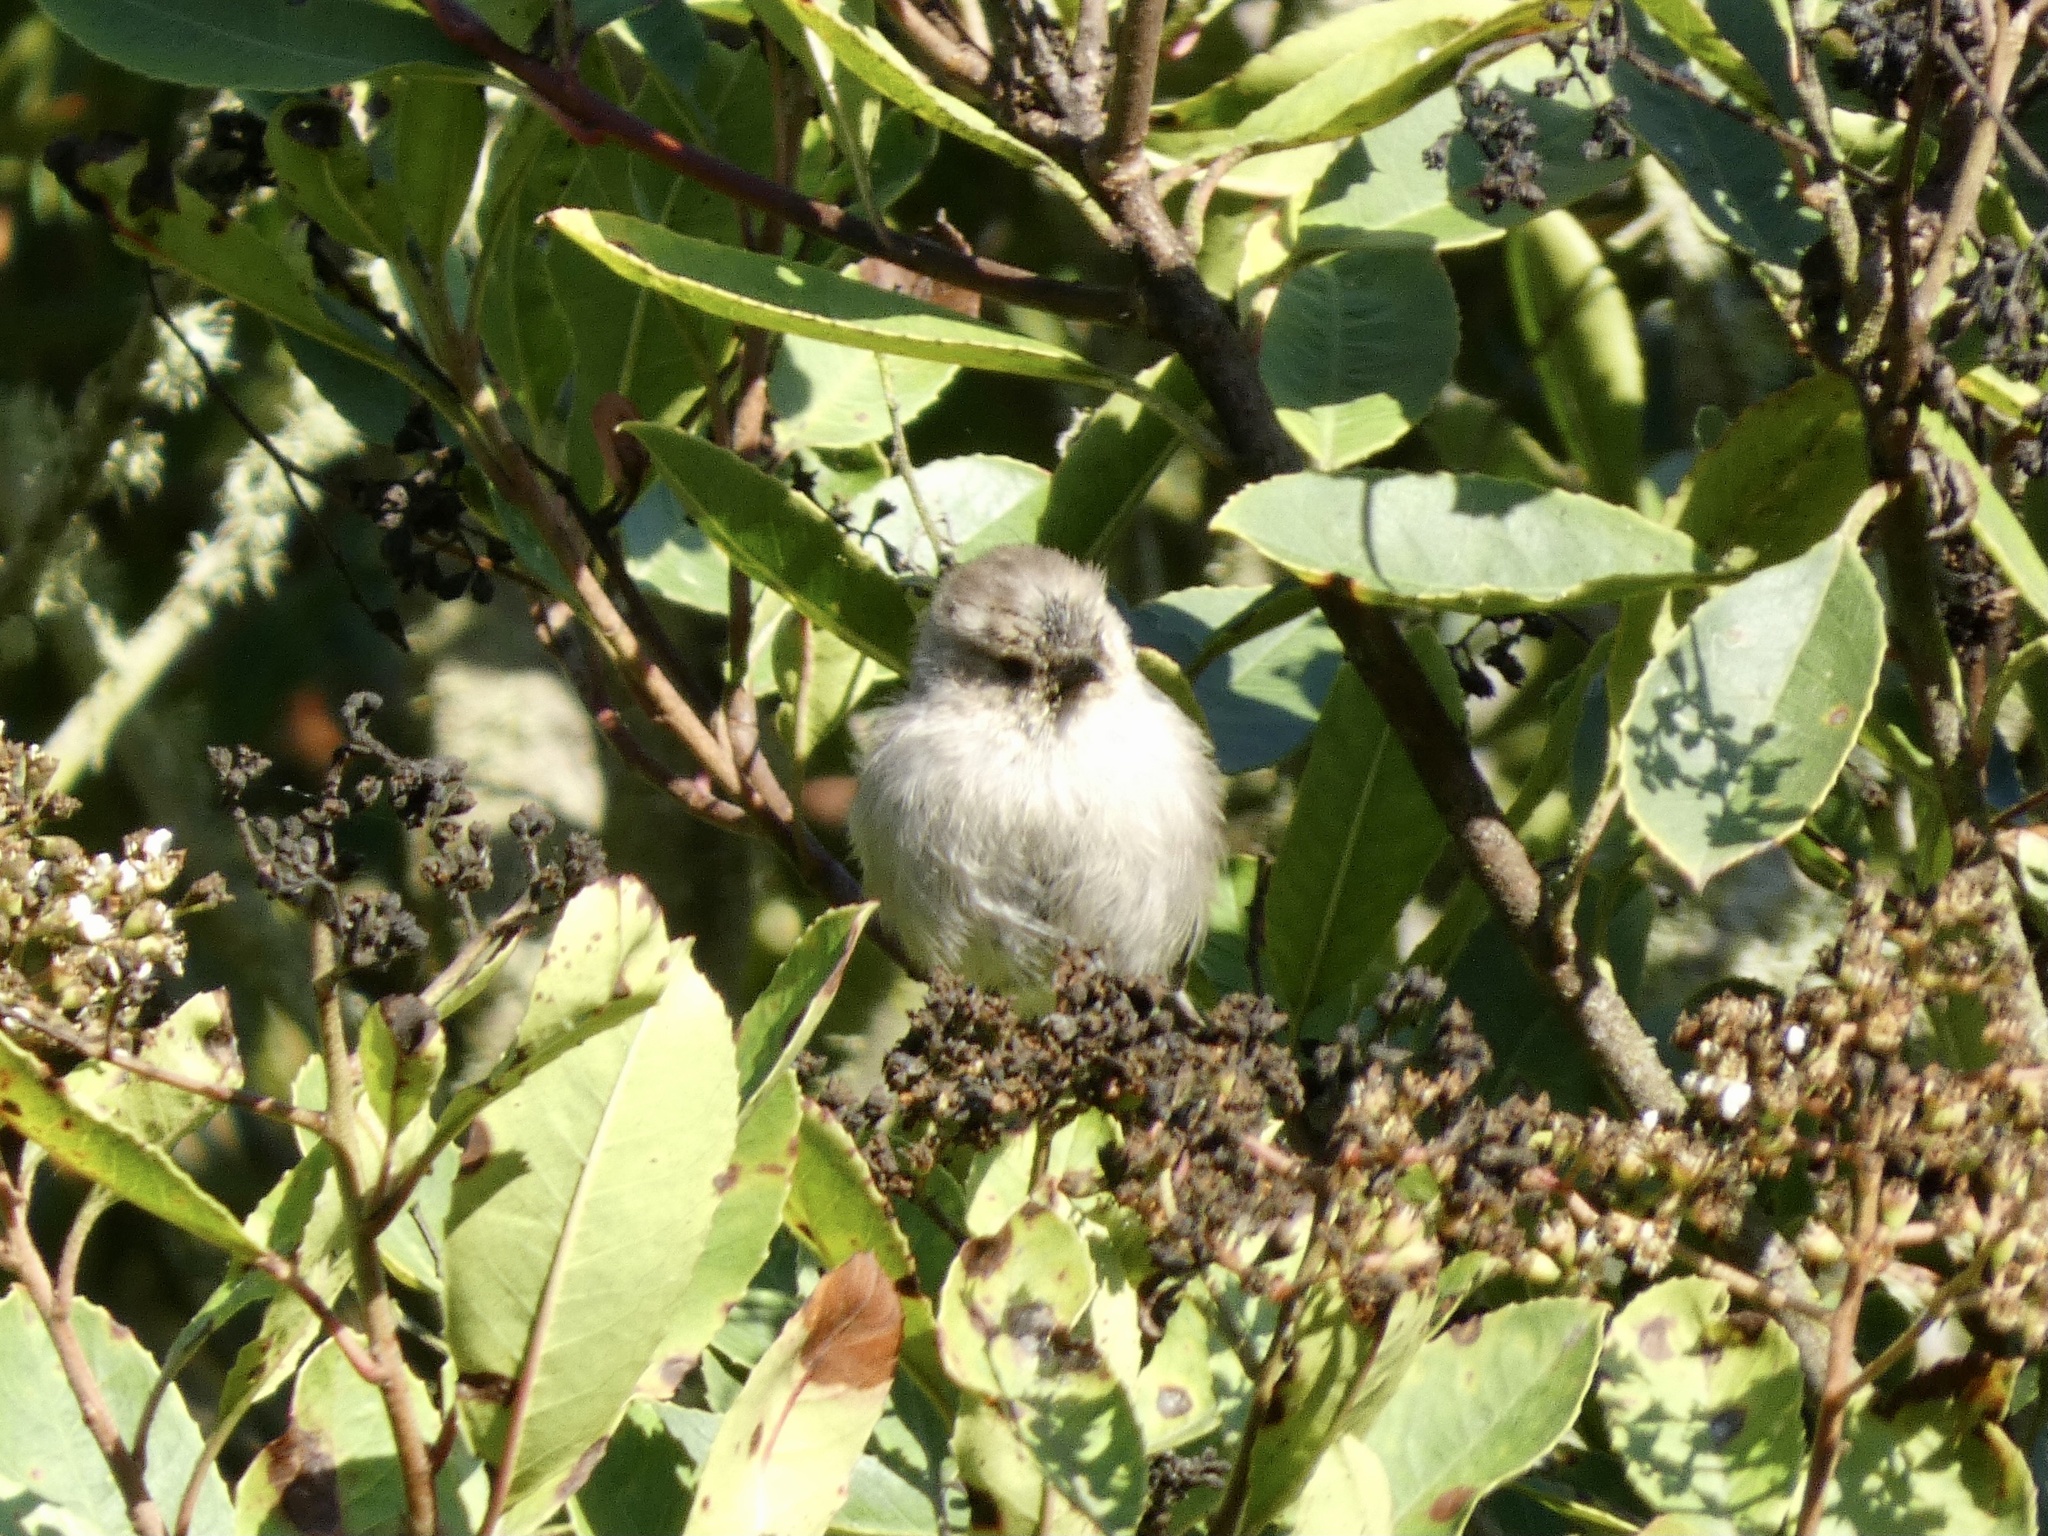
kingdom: Animalia
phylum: Chordata
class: Aves
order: Passeriformes
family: Aegithalidae
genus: Psaltriparus
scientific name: Psaltriparus minimus
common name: American bushtit
